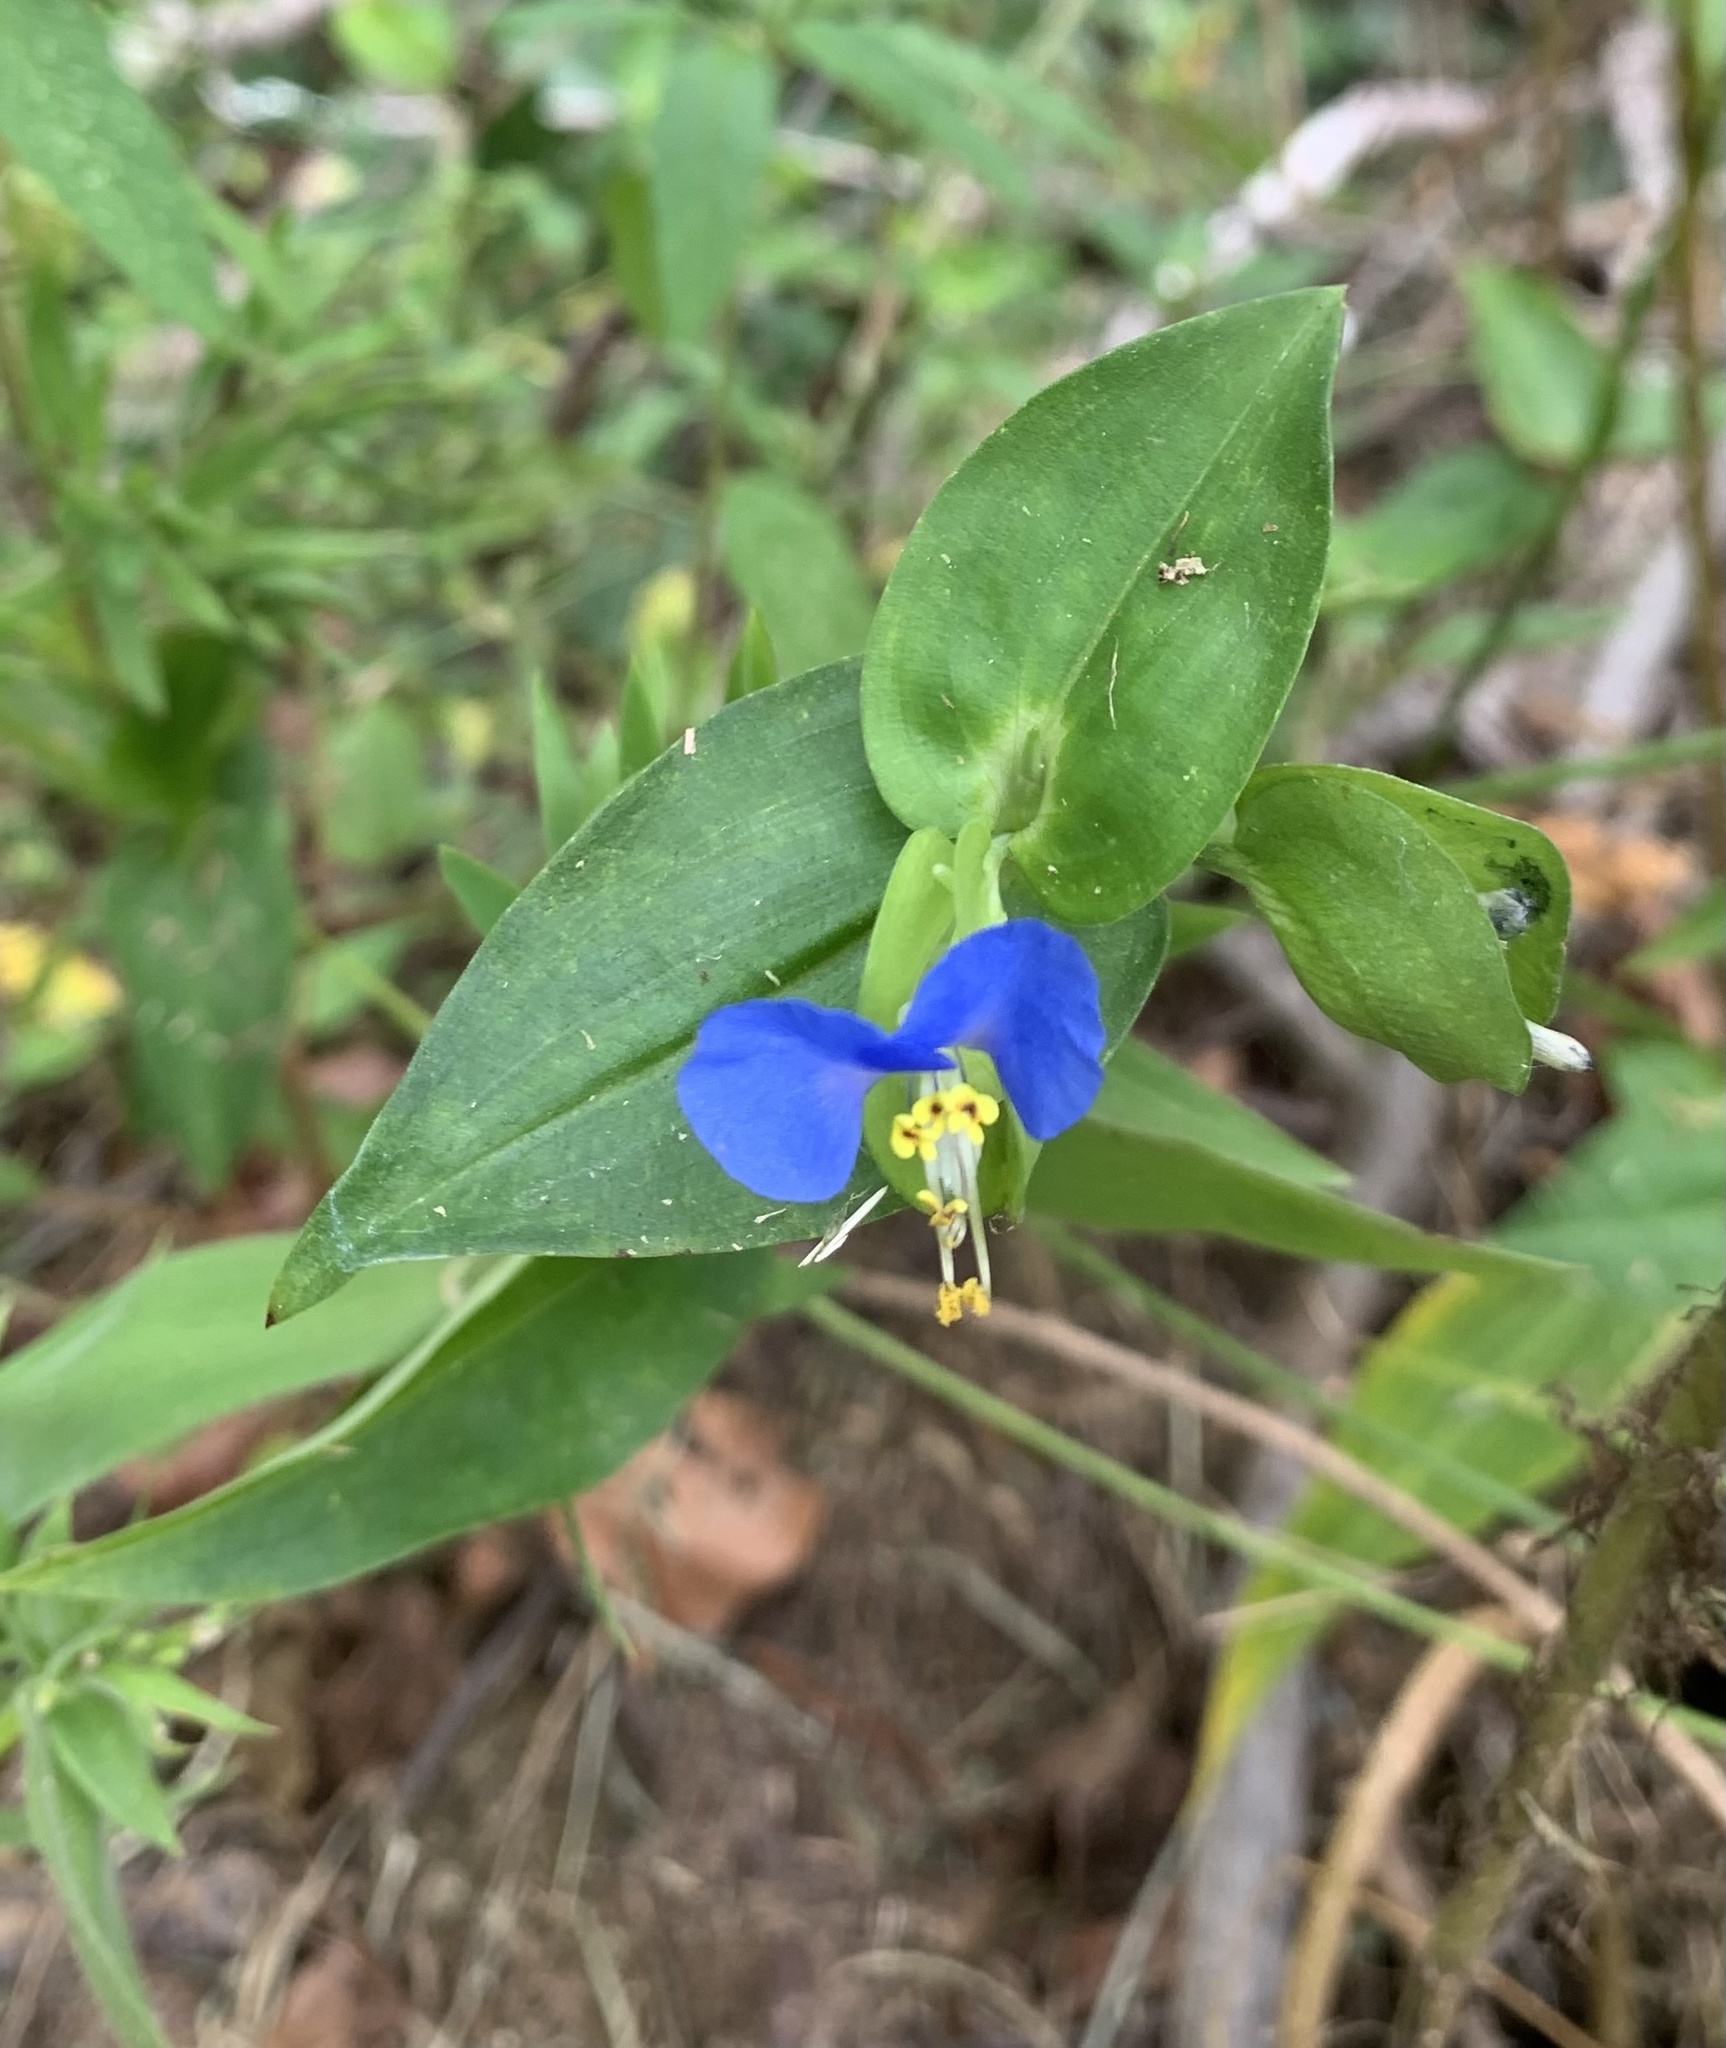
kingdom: Plantae
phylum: Tracheophyta
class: Liliopsida
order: Commelinales
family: Commelinaceae
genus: Commelina
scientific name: Commelina communis
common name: Asiatic dayflower
